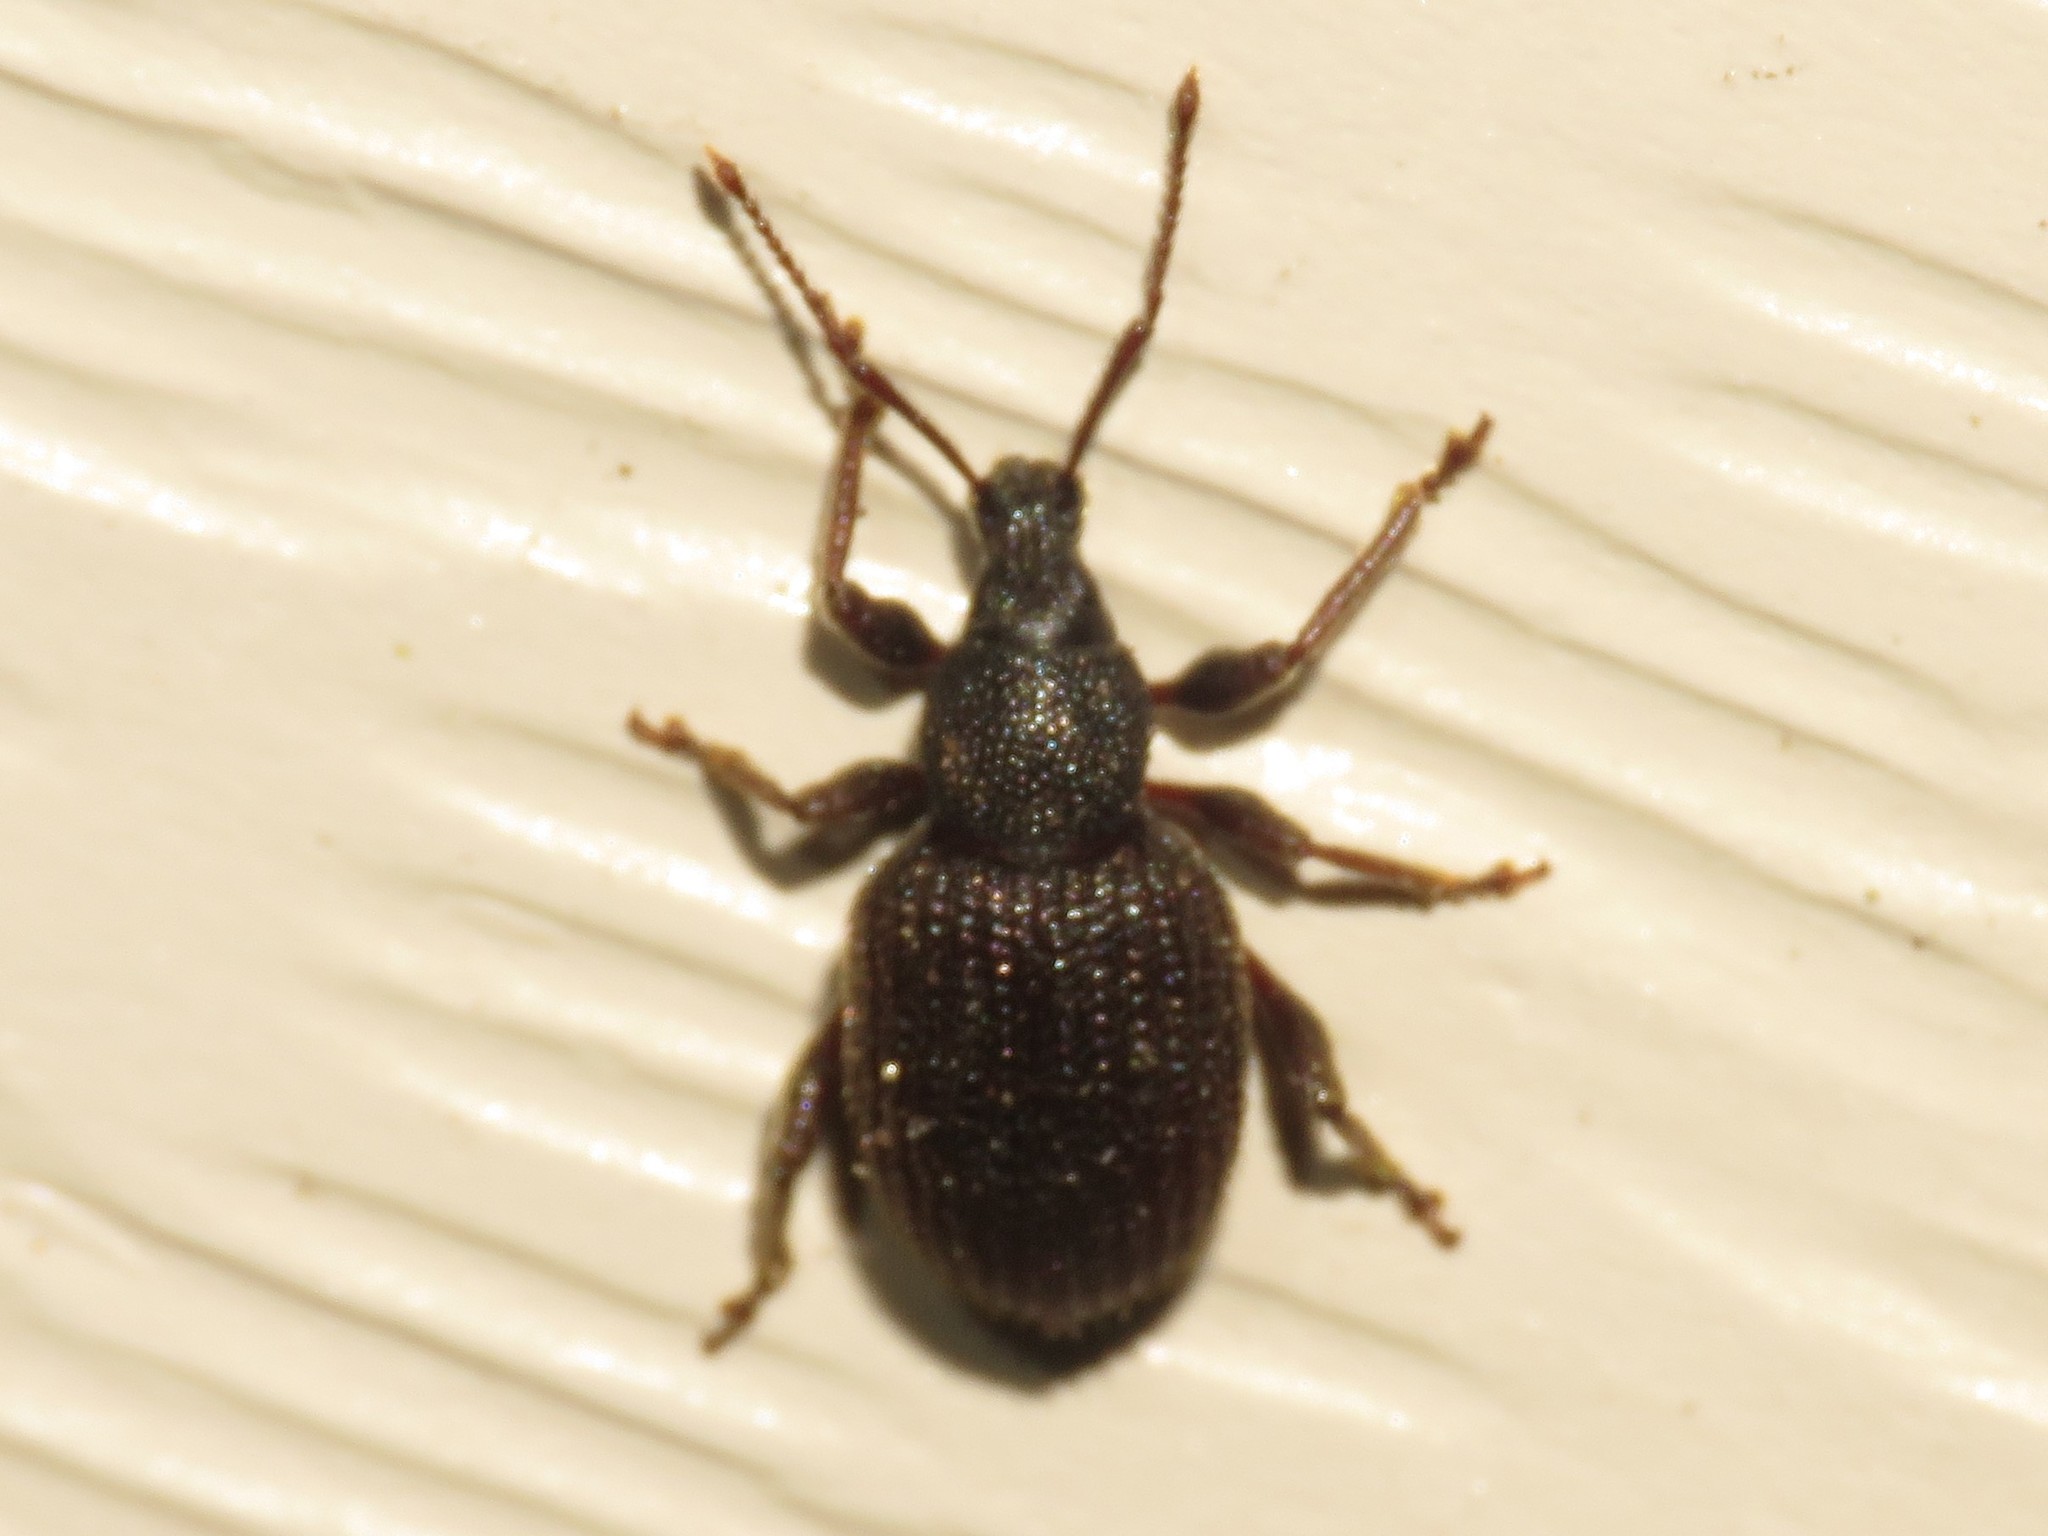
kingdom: Animalia
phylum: Arthropoda
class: Insecta
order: Coleoptera
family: Curculionidae
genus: Otiorhynchus
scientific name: Otiorhynchus sulcatus
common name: Black vine weevil
